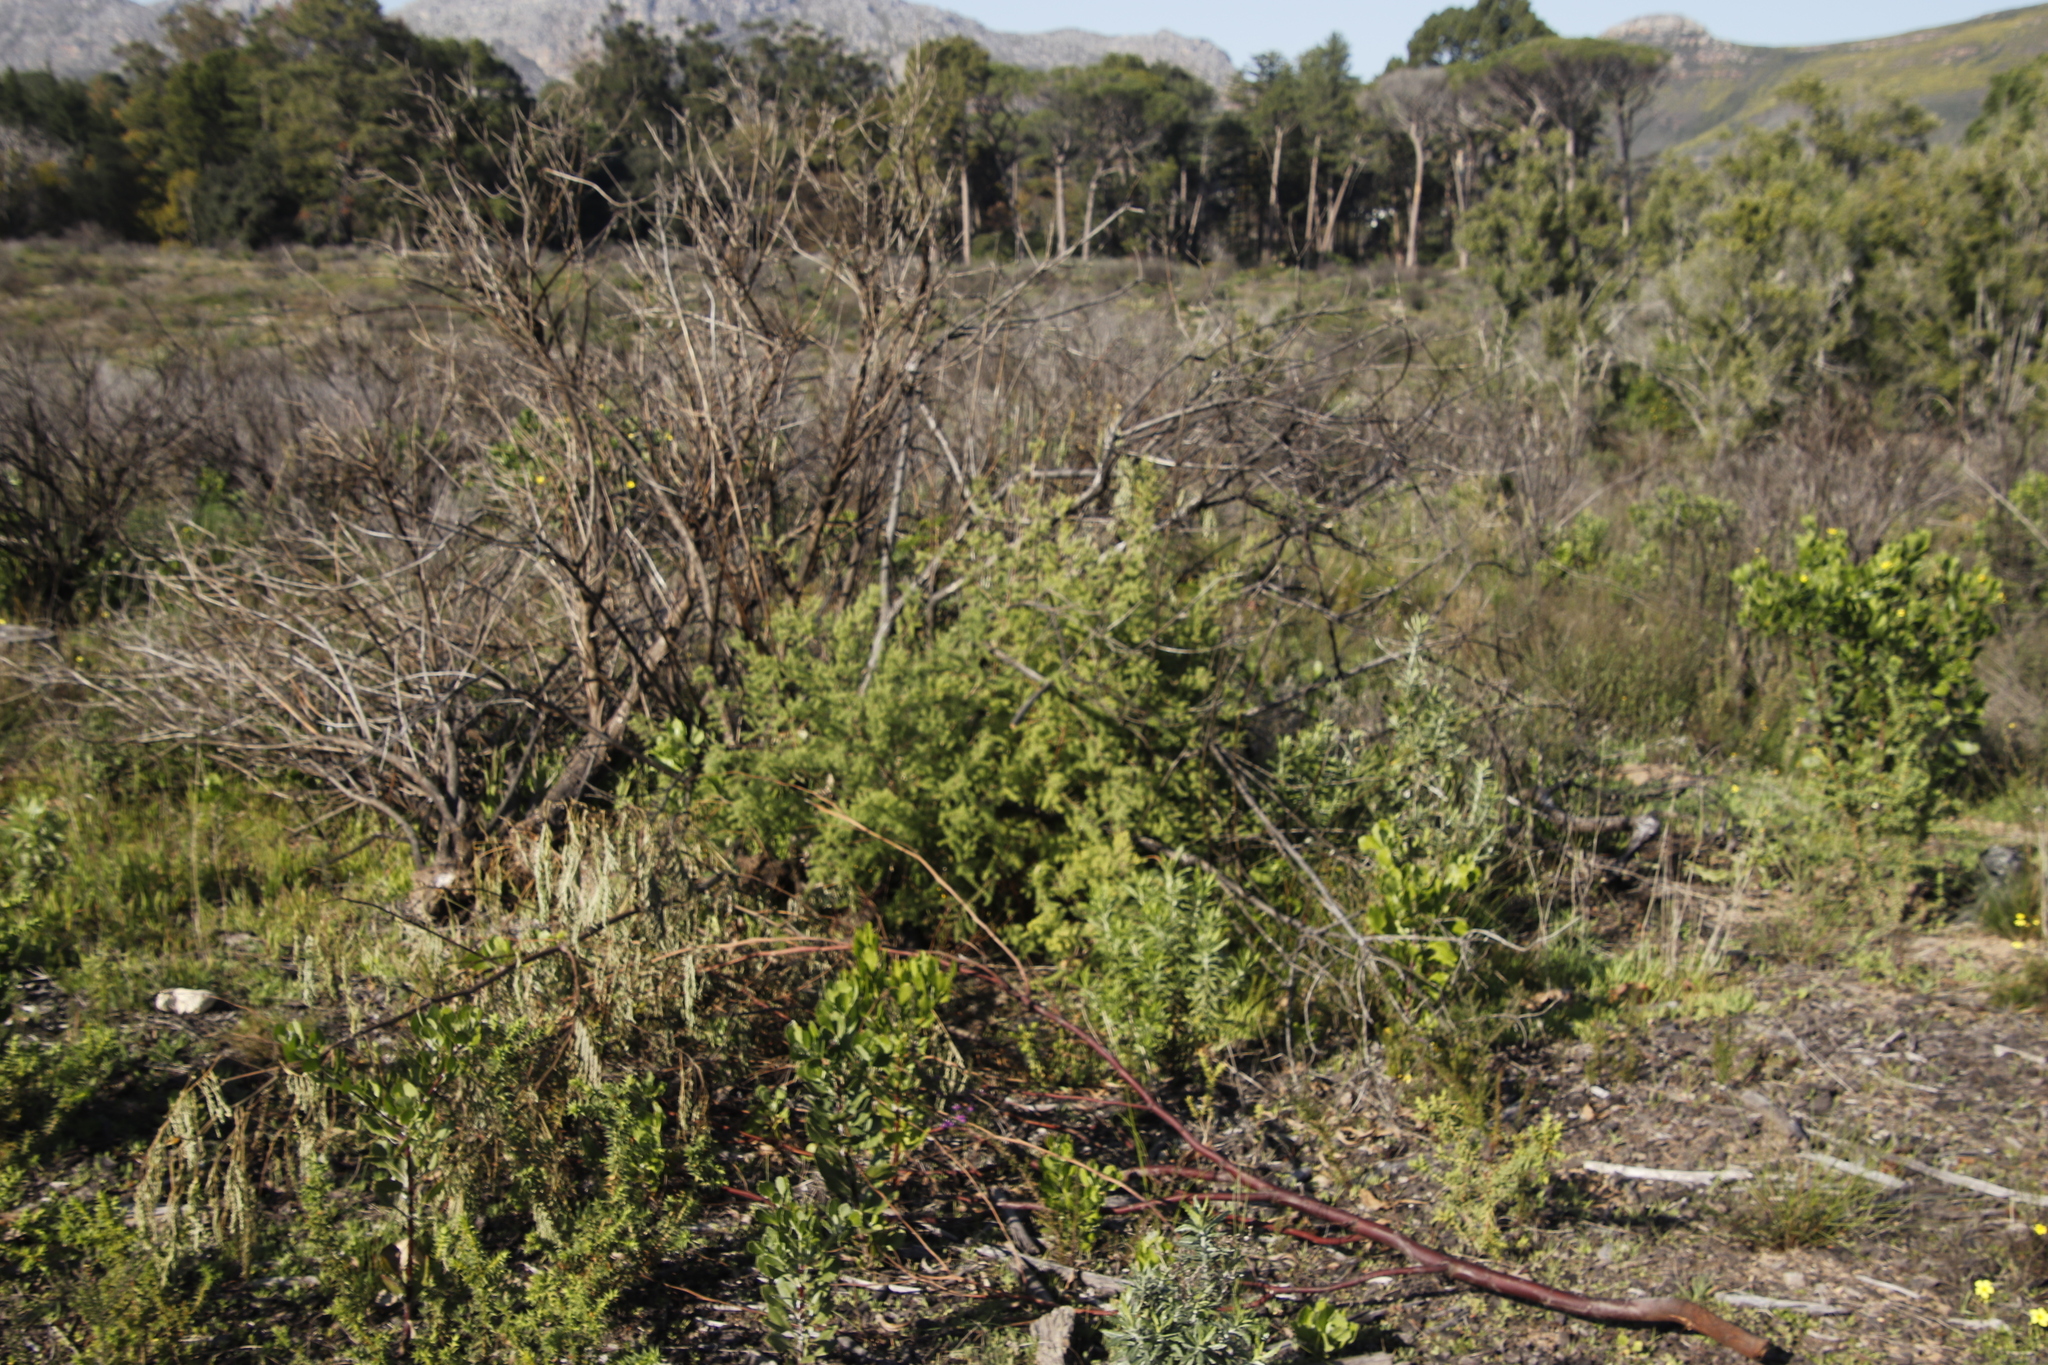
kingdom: Plantae
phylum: Tracheophyta
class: Liliopsida
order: Asparagales
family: Asparagaceae
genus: Asparagus
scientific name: Asparagus rubicundus
